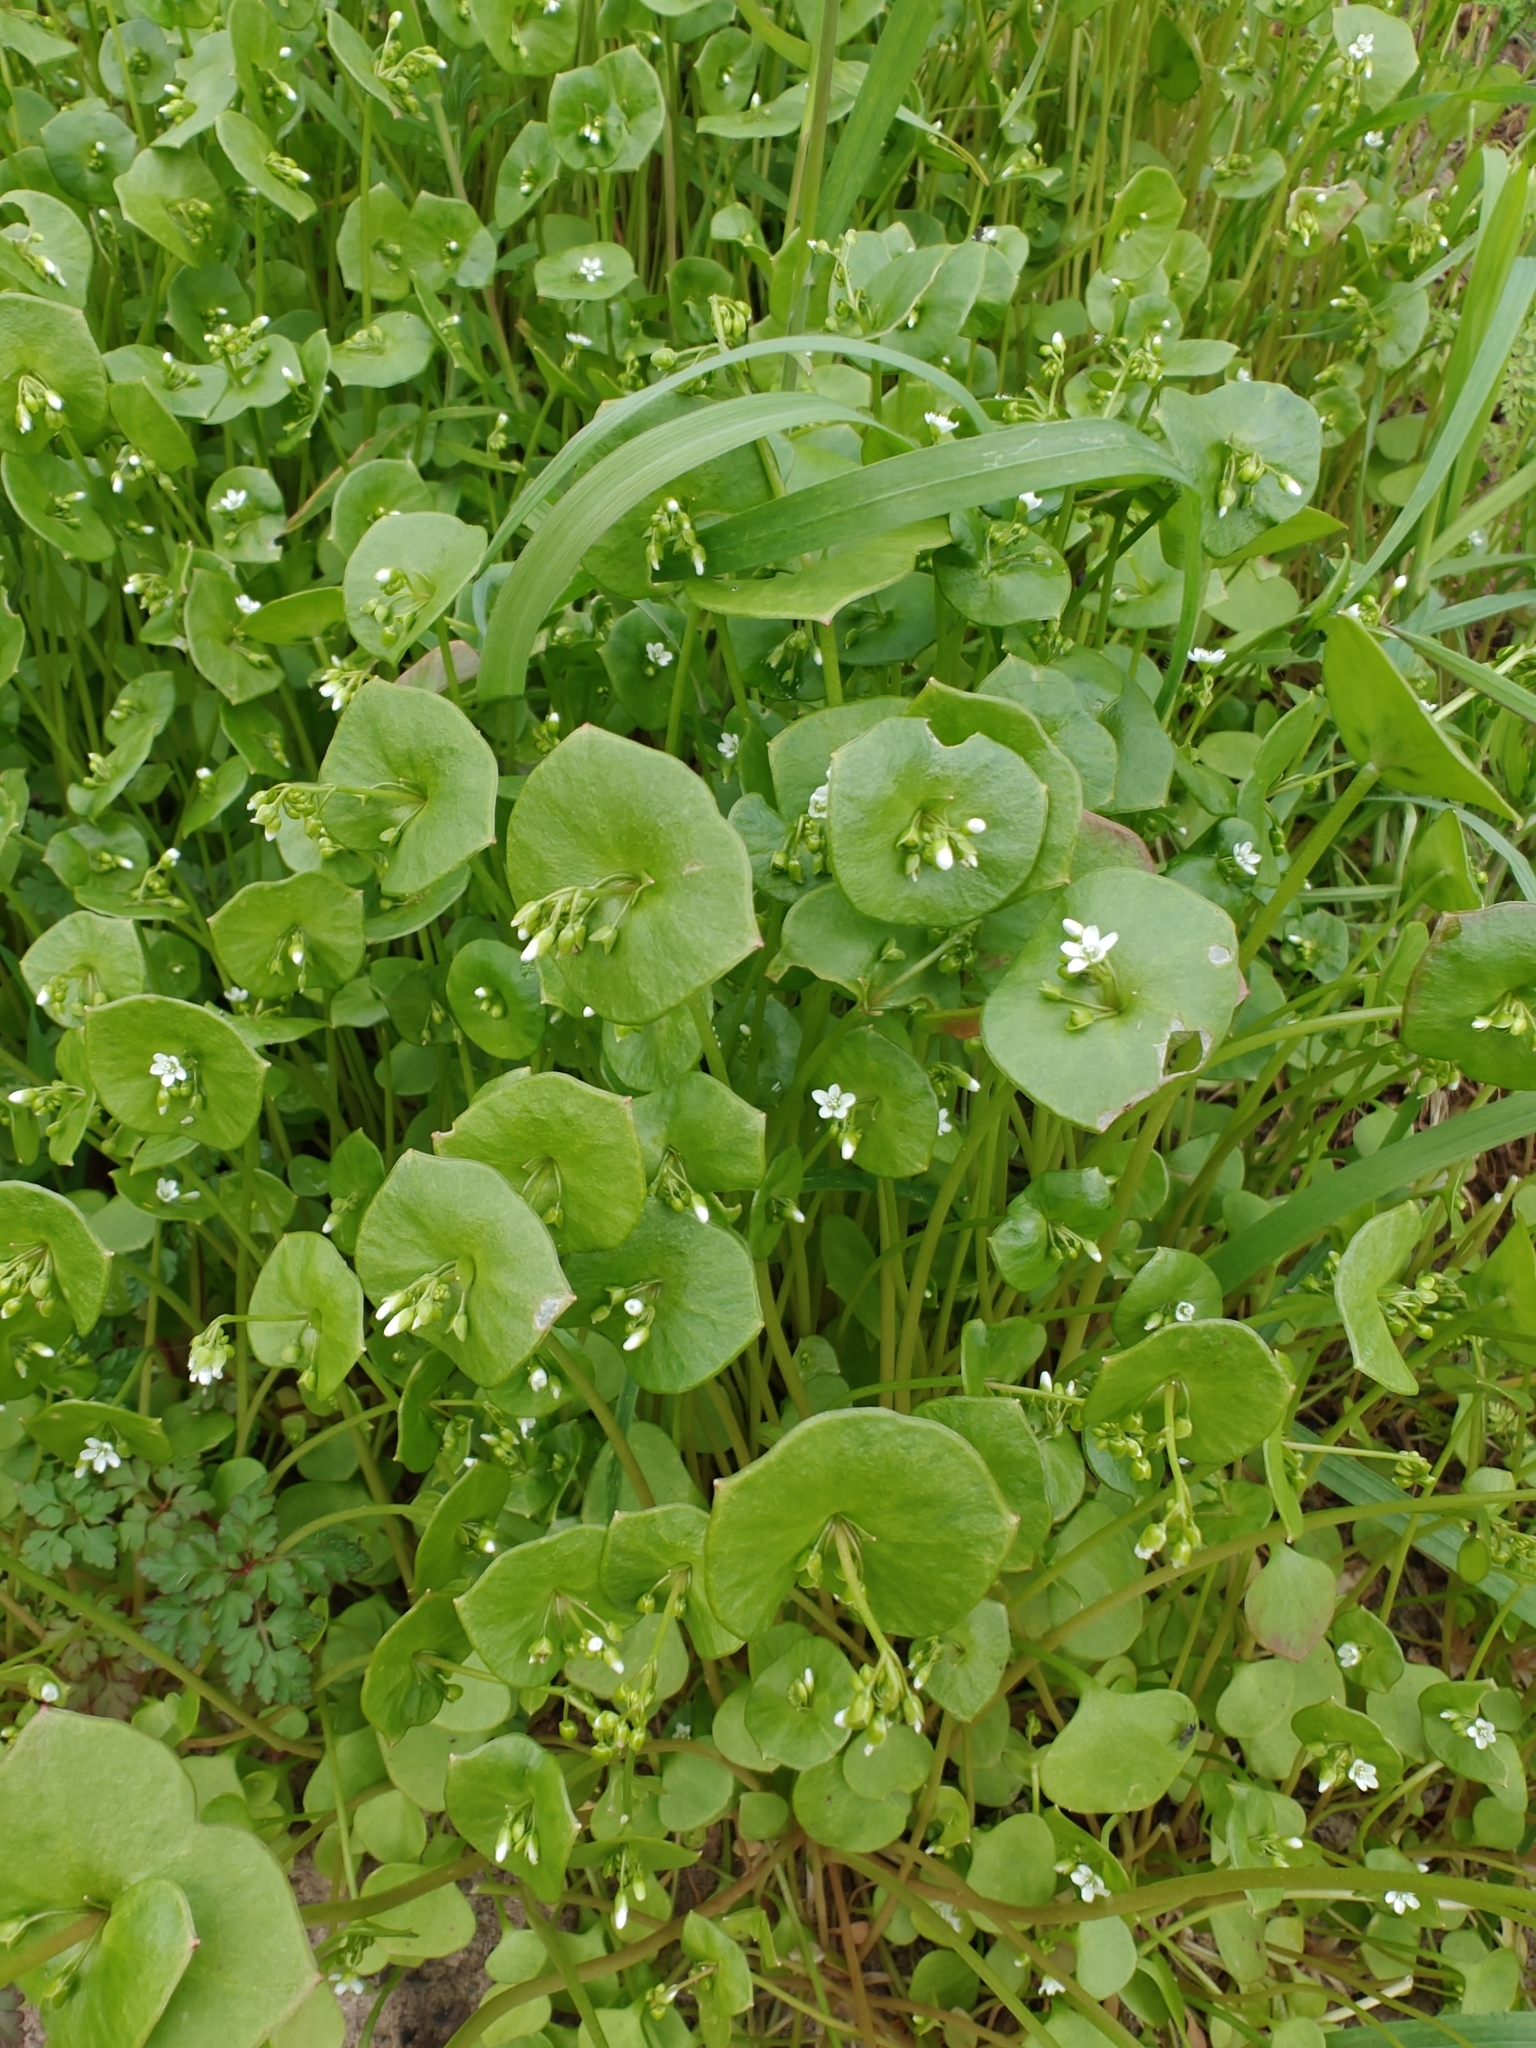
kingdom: Plantae
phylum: Tracheophyta
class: Magnoliopsida
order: Caryophyllales
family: Montiaceae
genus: Claytonia
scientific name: Claytonia perfoliata
